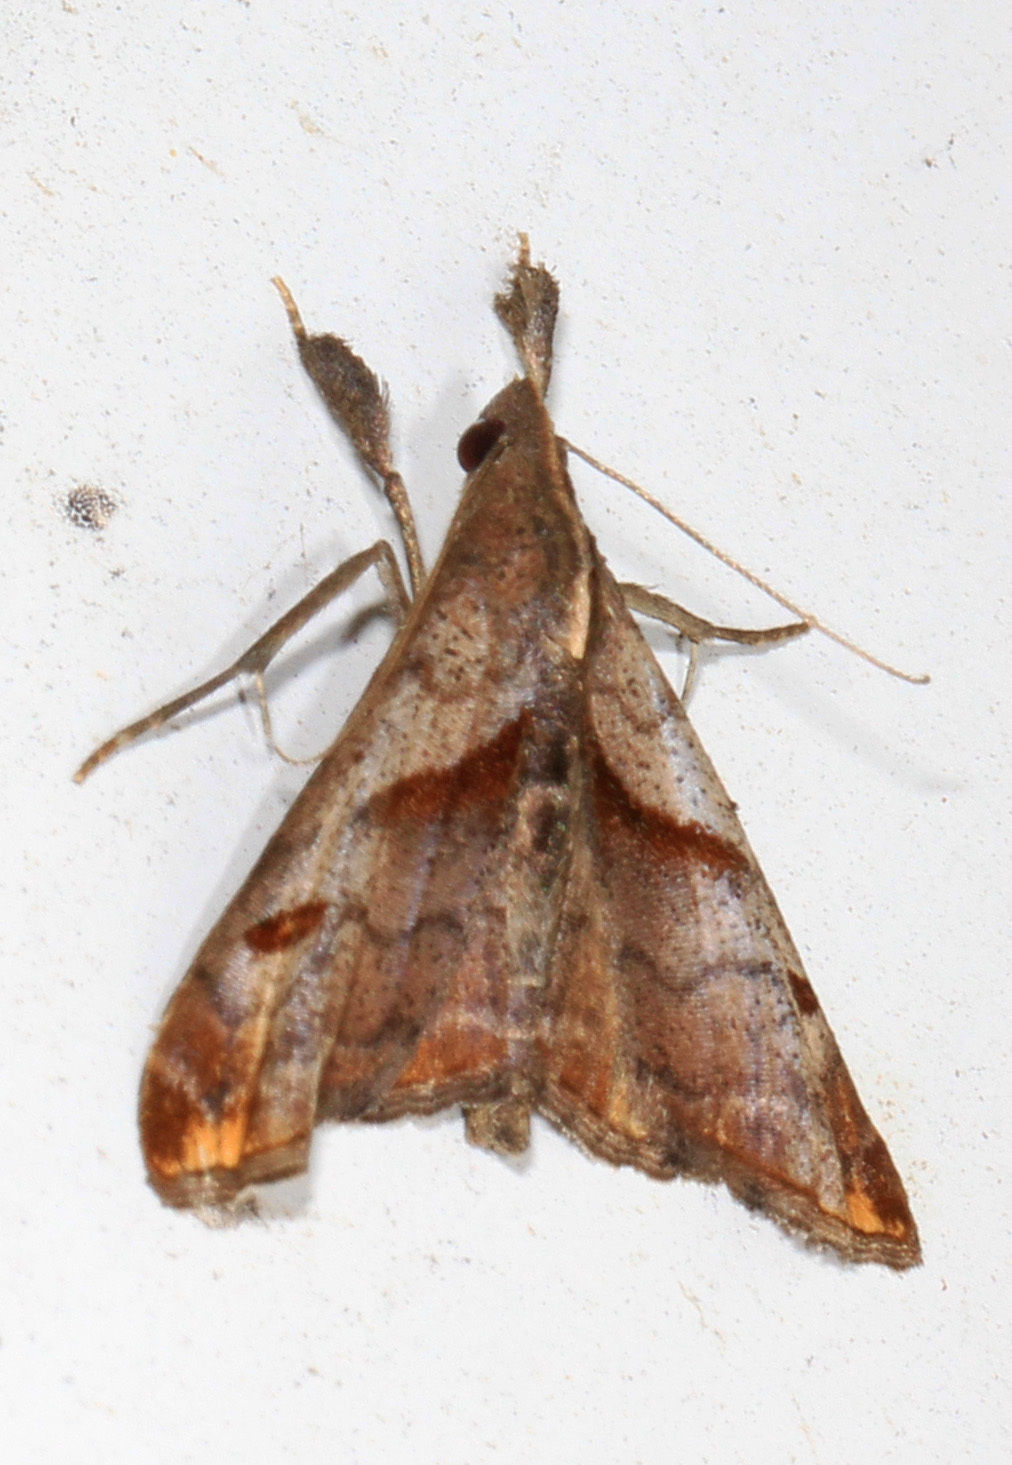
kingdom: Animalia
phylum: Arthropoda
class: Insecta
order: Lepidoptera
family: Erebidae
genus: Palthis
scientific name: Palthis angulalis
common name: Dark-spotted palthis moth
